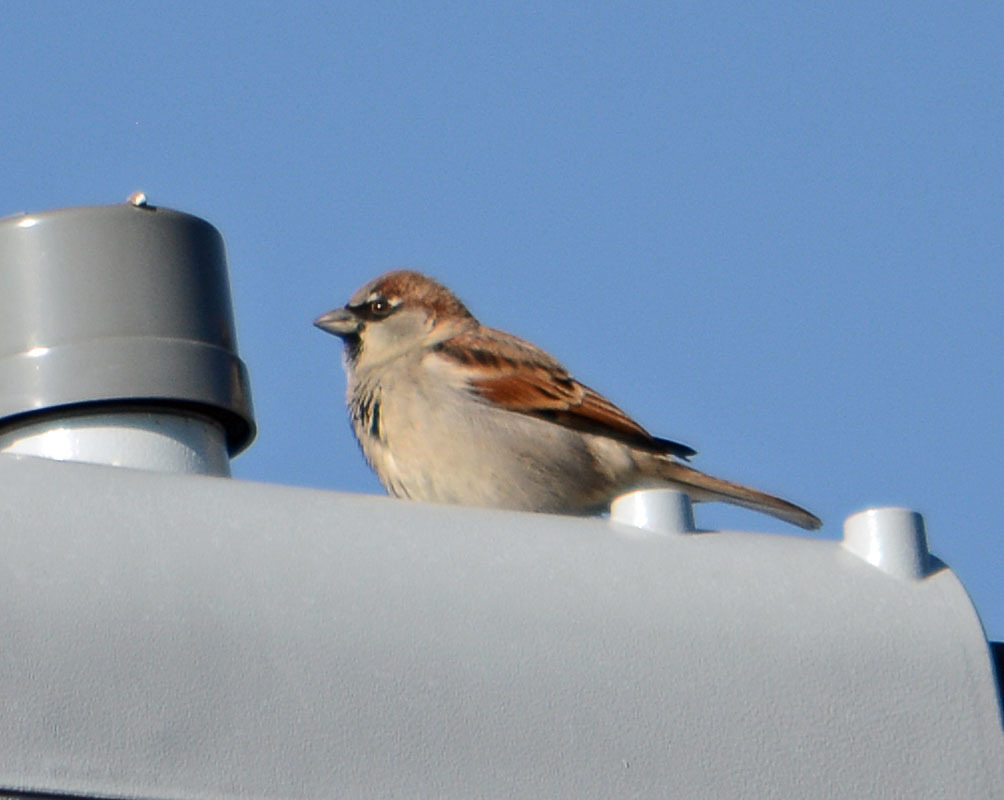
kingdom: Animalia
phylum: Chordata
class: Aves
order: Passeriformes
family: Passeridae
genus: Passer
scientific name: Passer domesticus
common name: House sparrow
